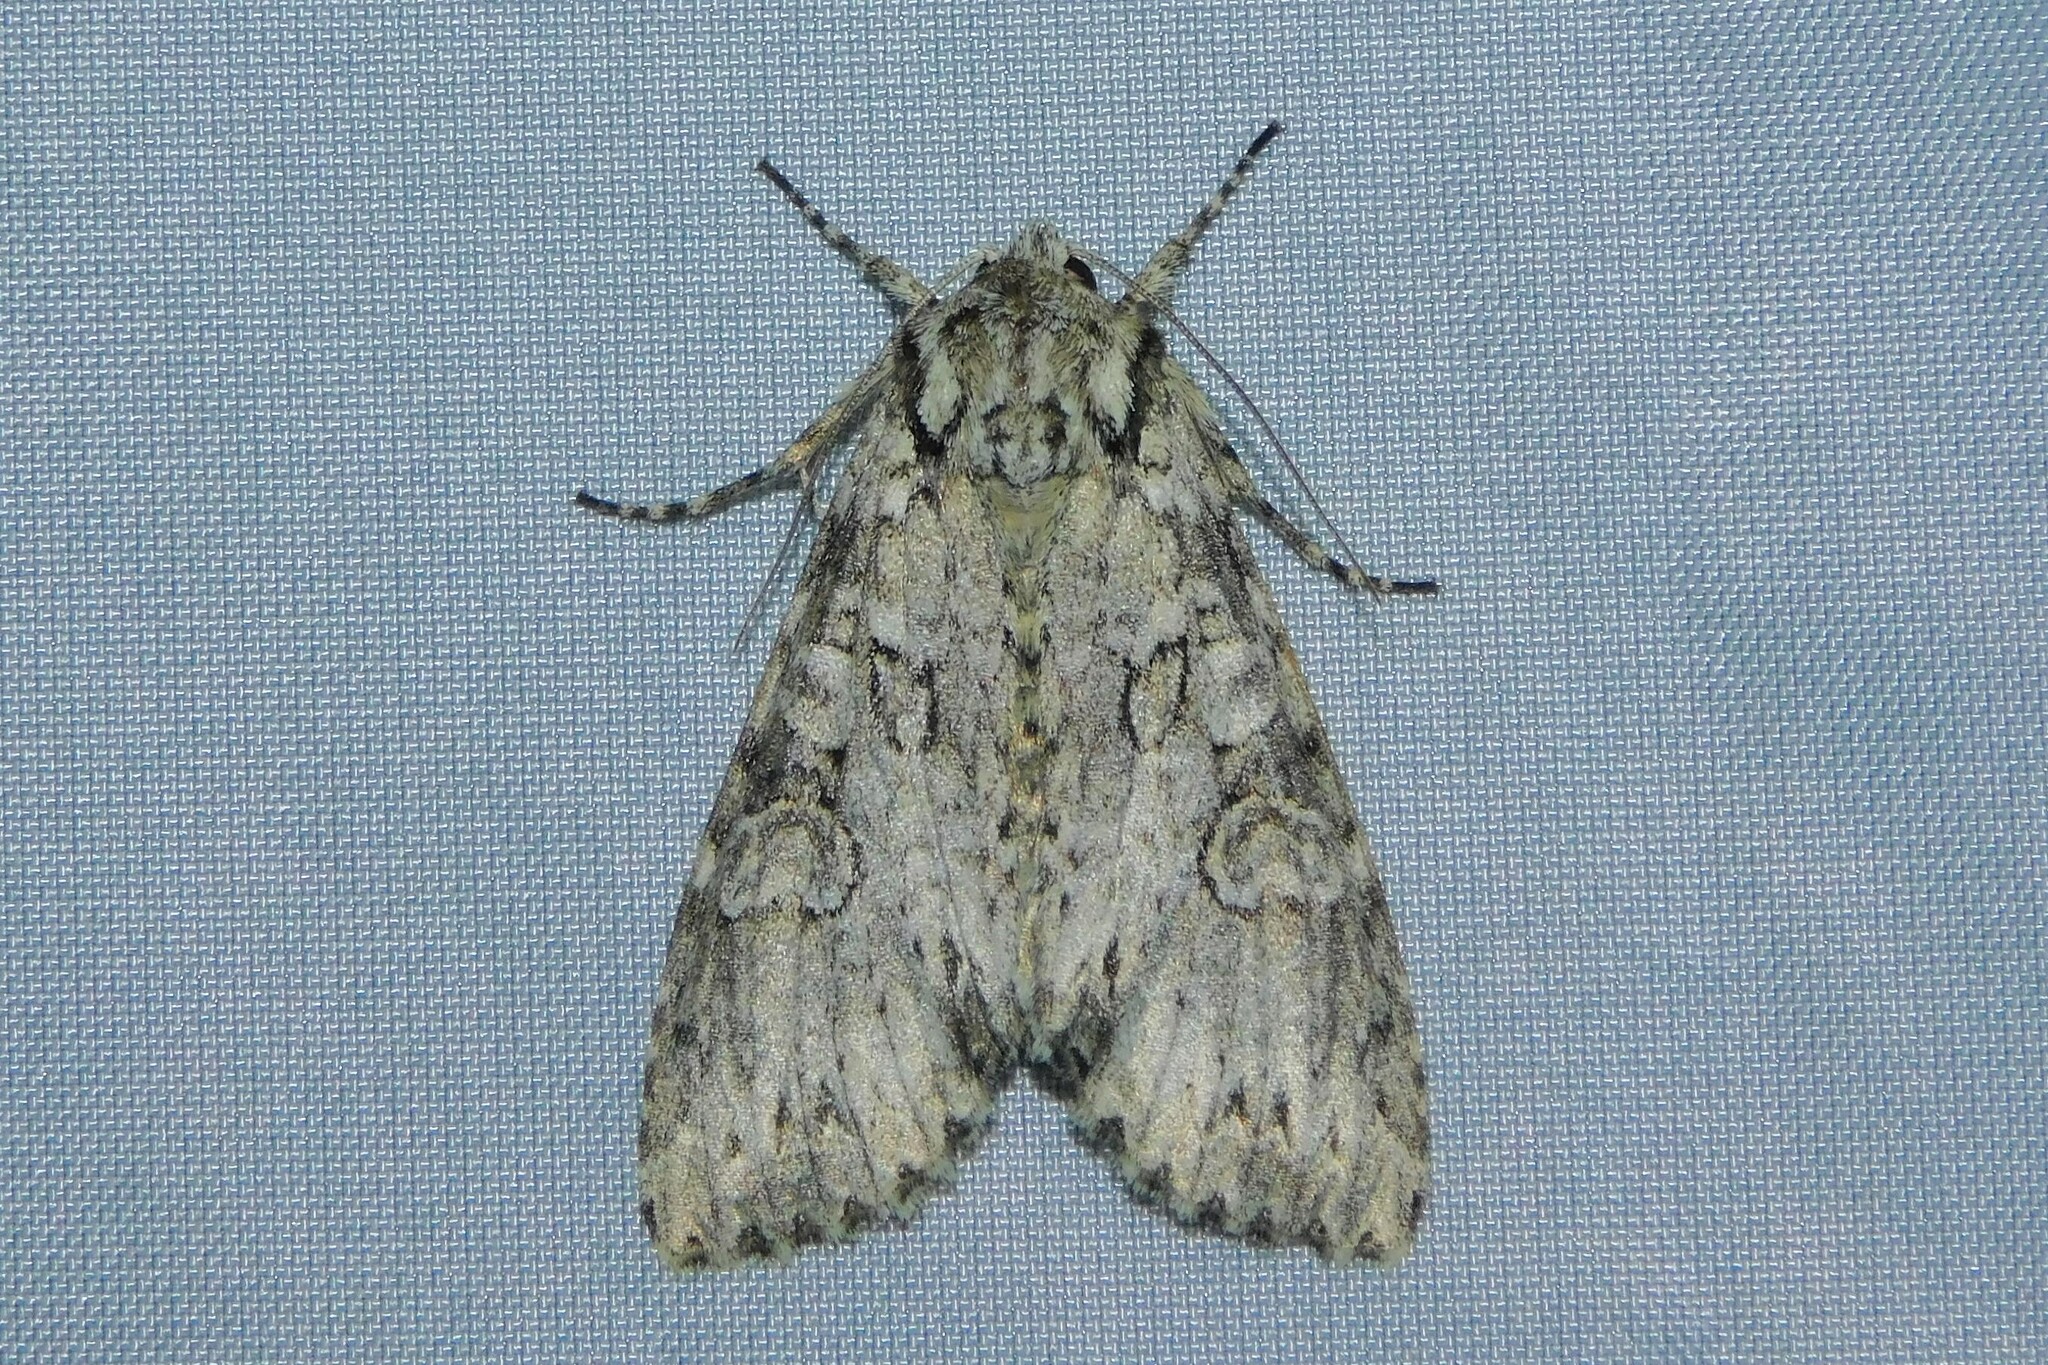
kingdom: Animalia
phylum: Arthropoda
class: Insecta
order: Lepidoptera
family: Noctuidae
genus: Polia
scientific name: Polia nebulosa
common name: Grey arches
